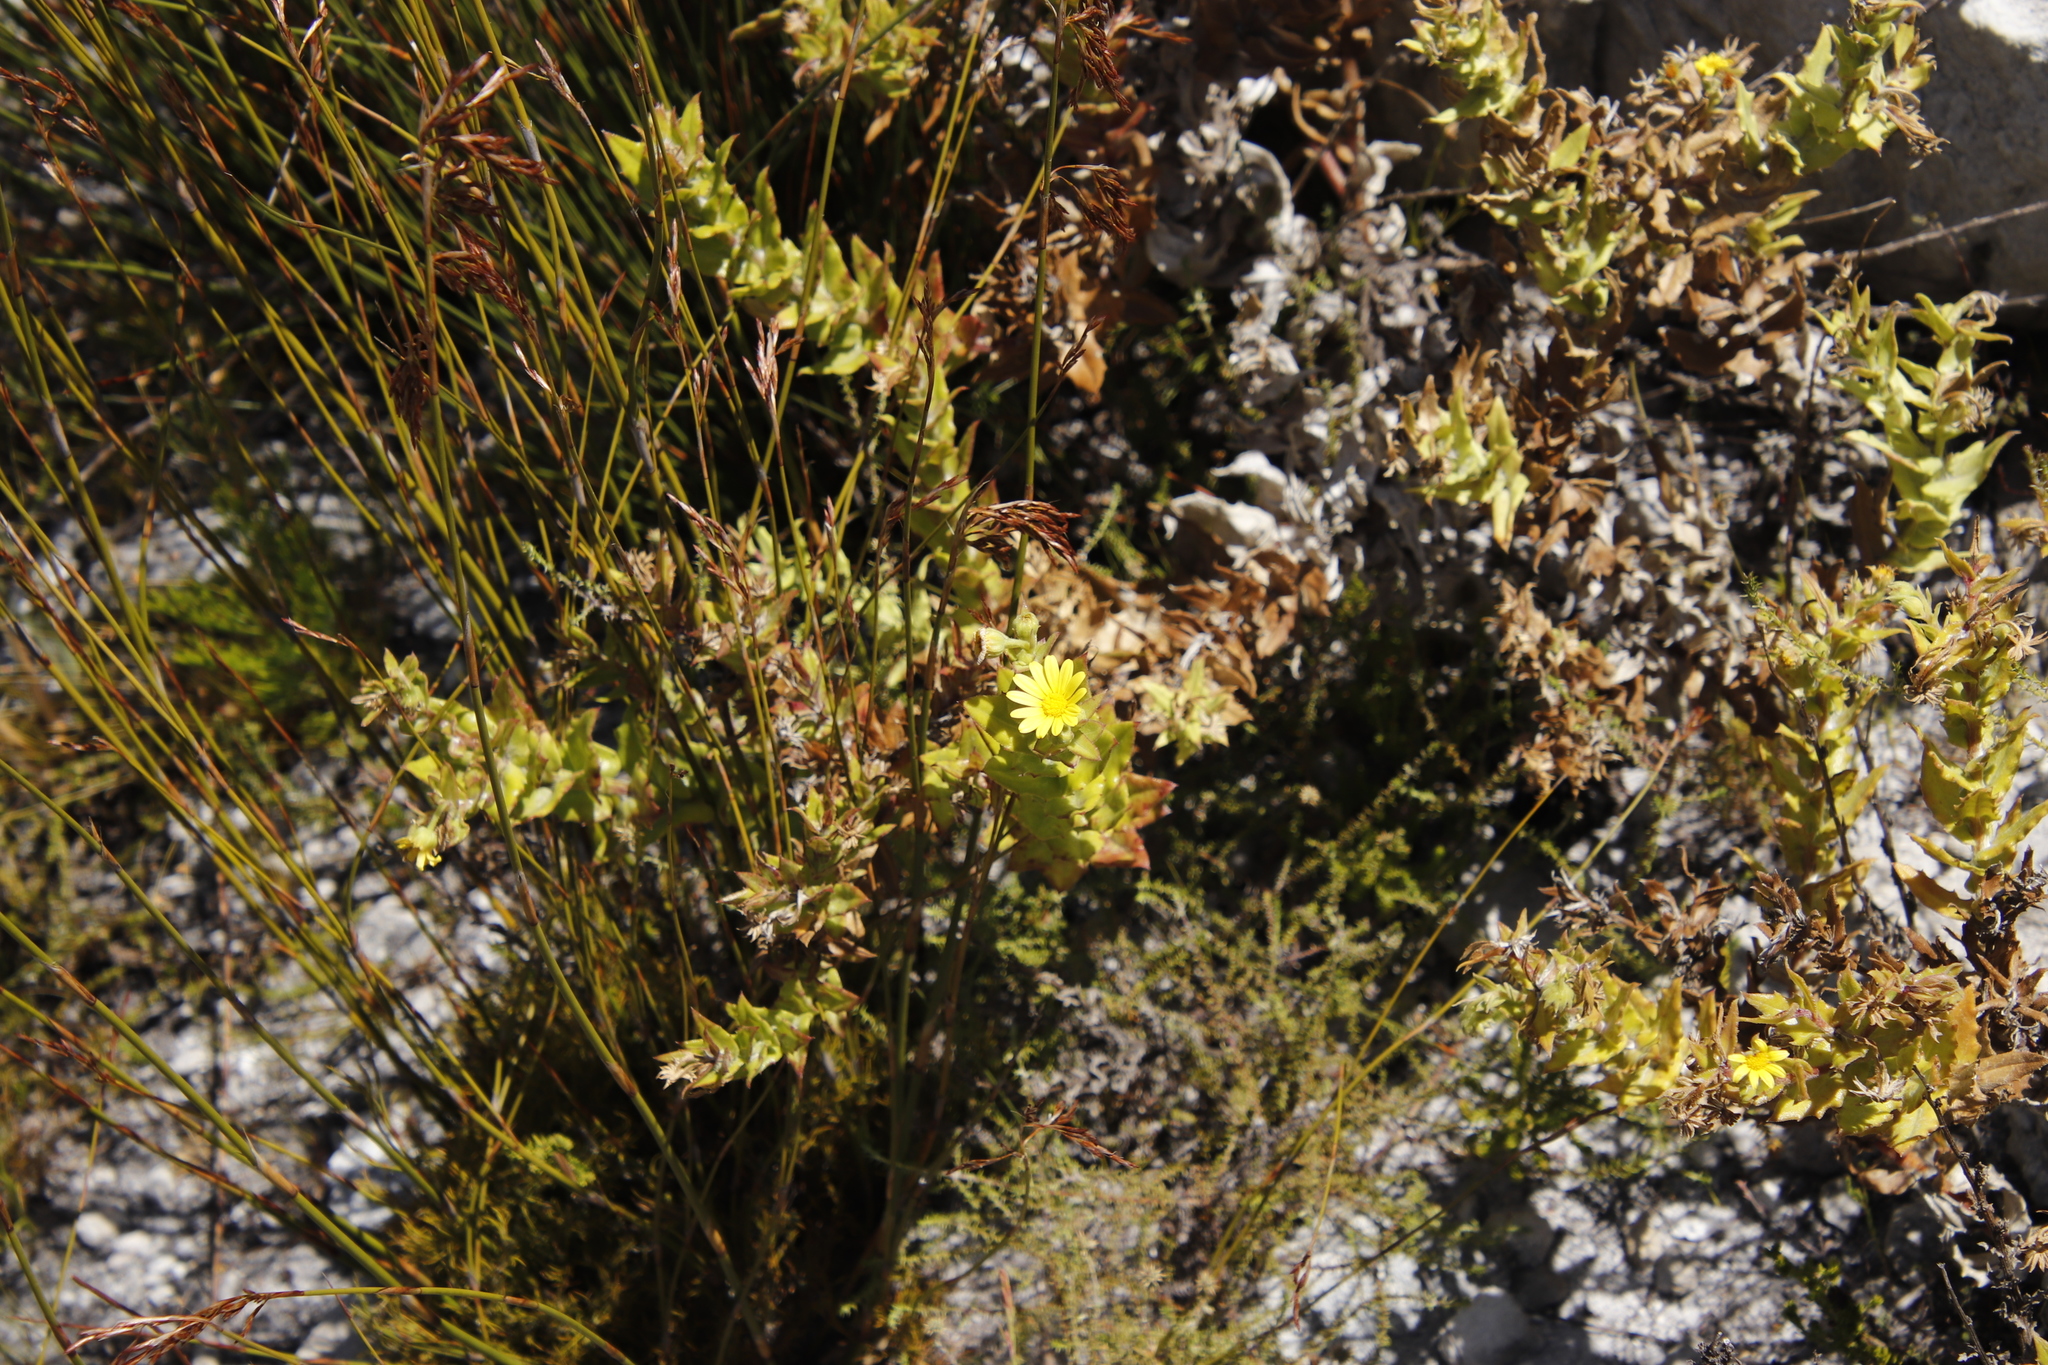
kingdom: Plantae
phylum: Tracheophyta
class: Magnoliopsida
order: Asterales
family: Asteraceae
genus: Osteospermum
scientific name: Osteospermum ilicifolium
